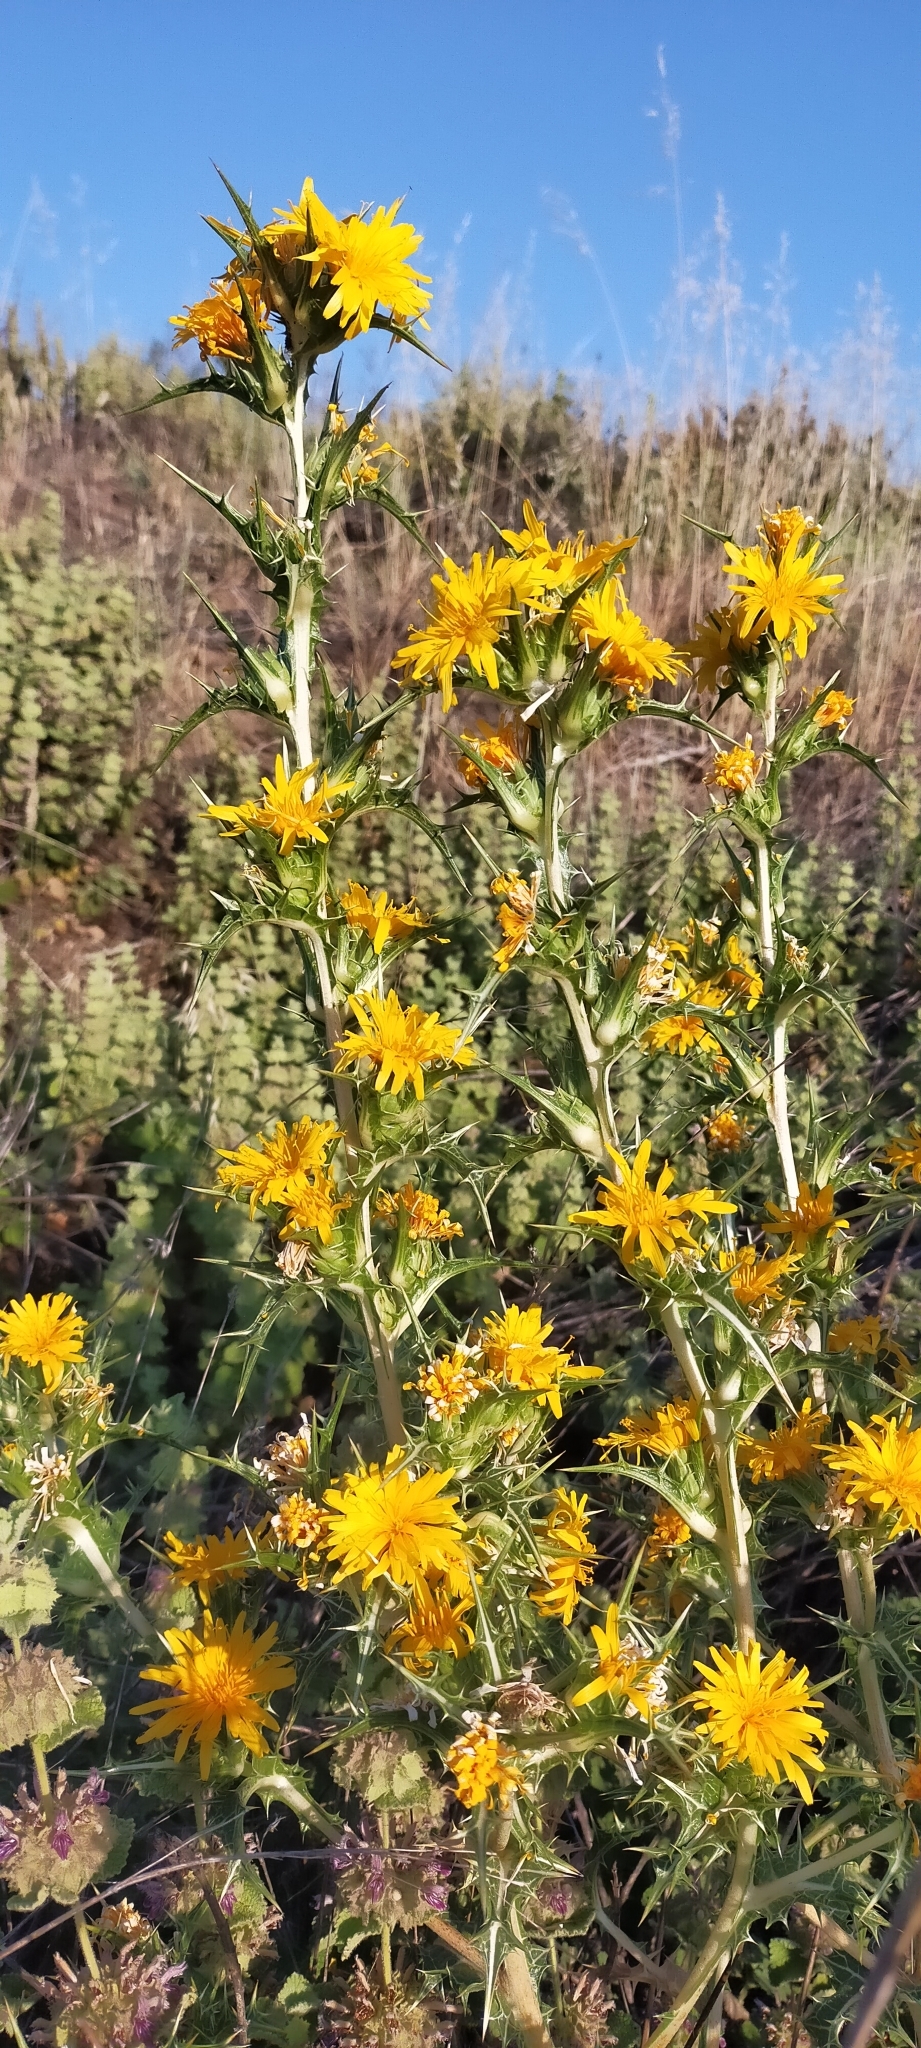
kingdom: Plantae
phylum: Tracheophyta
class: Magnoliopsida
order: Asterales
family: Asteraceae
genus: Scolymus
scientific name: Scolymus hispanicus
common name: Golden thistle
